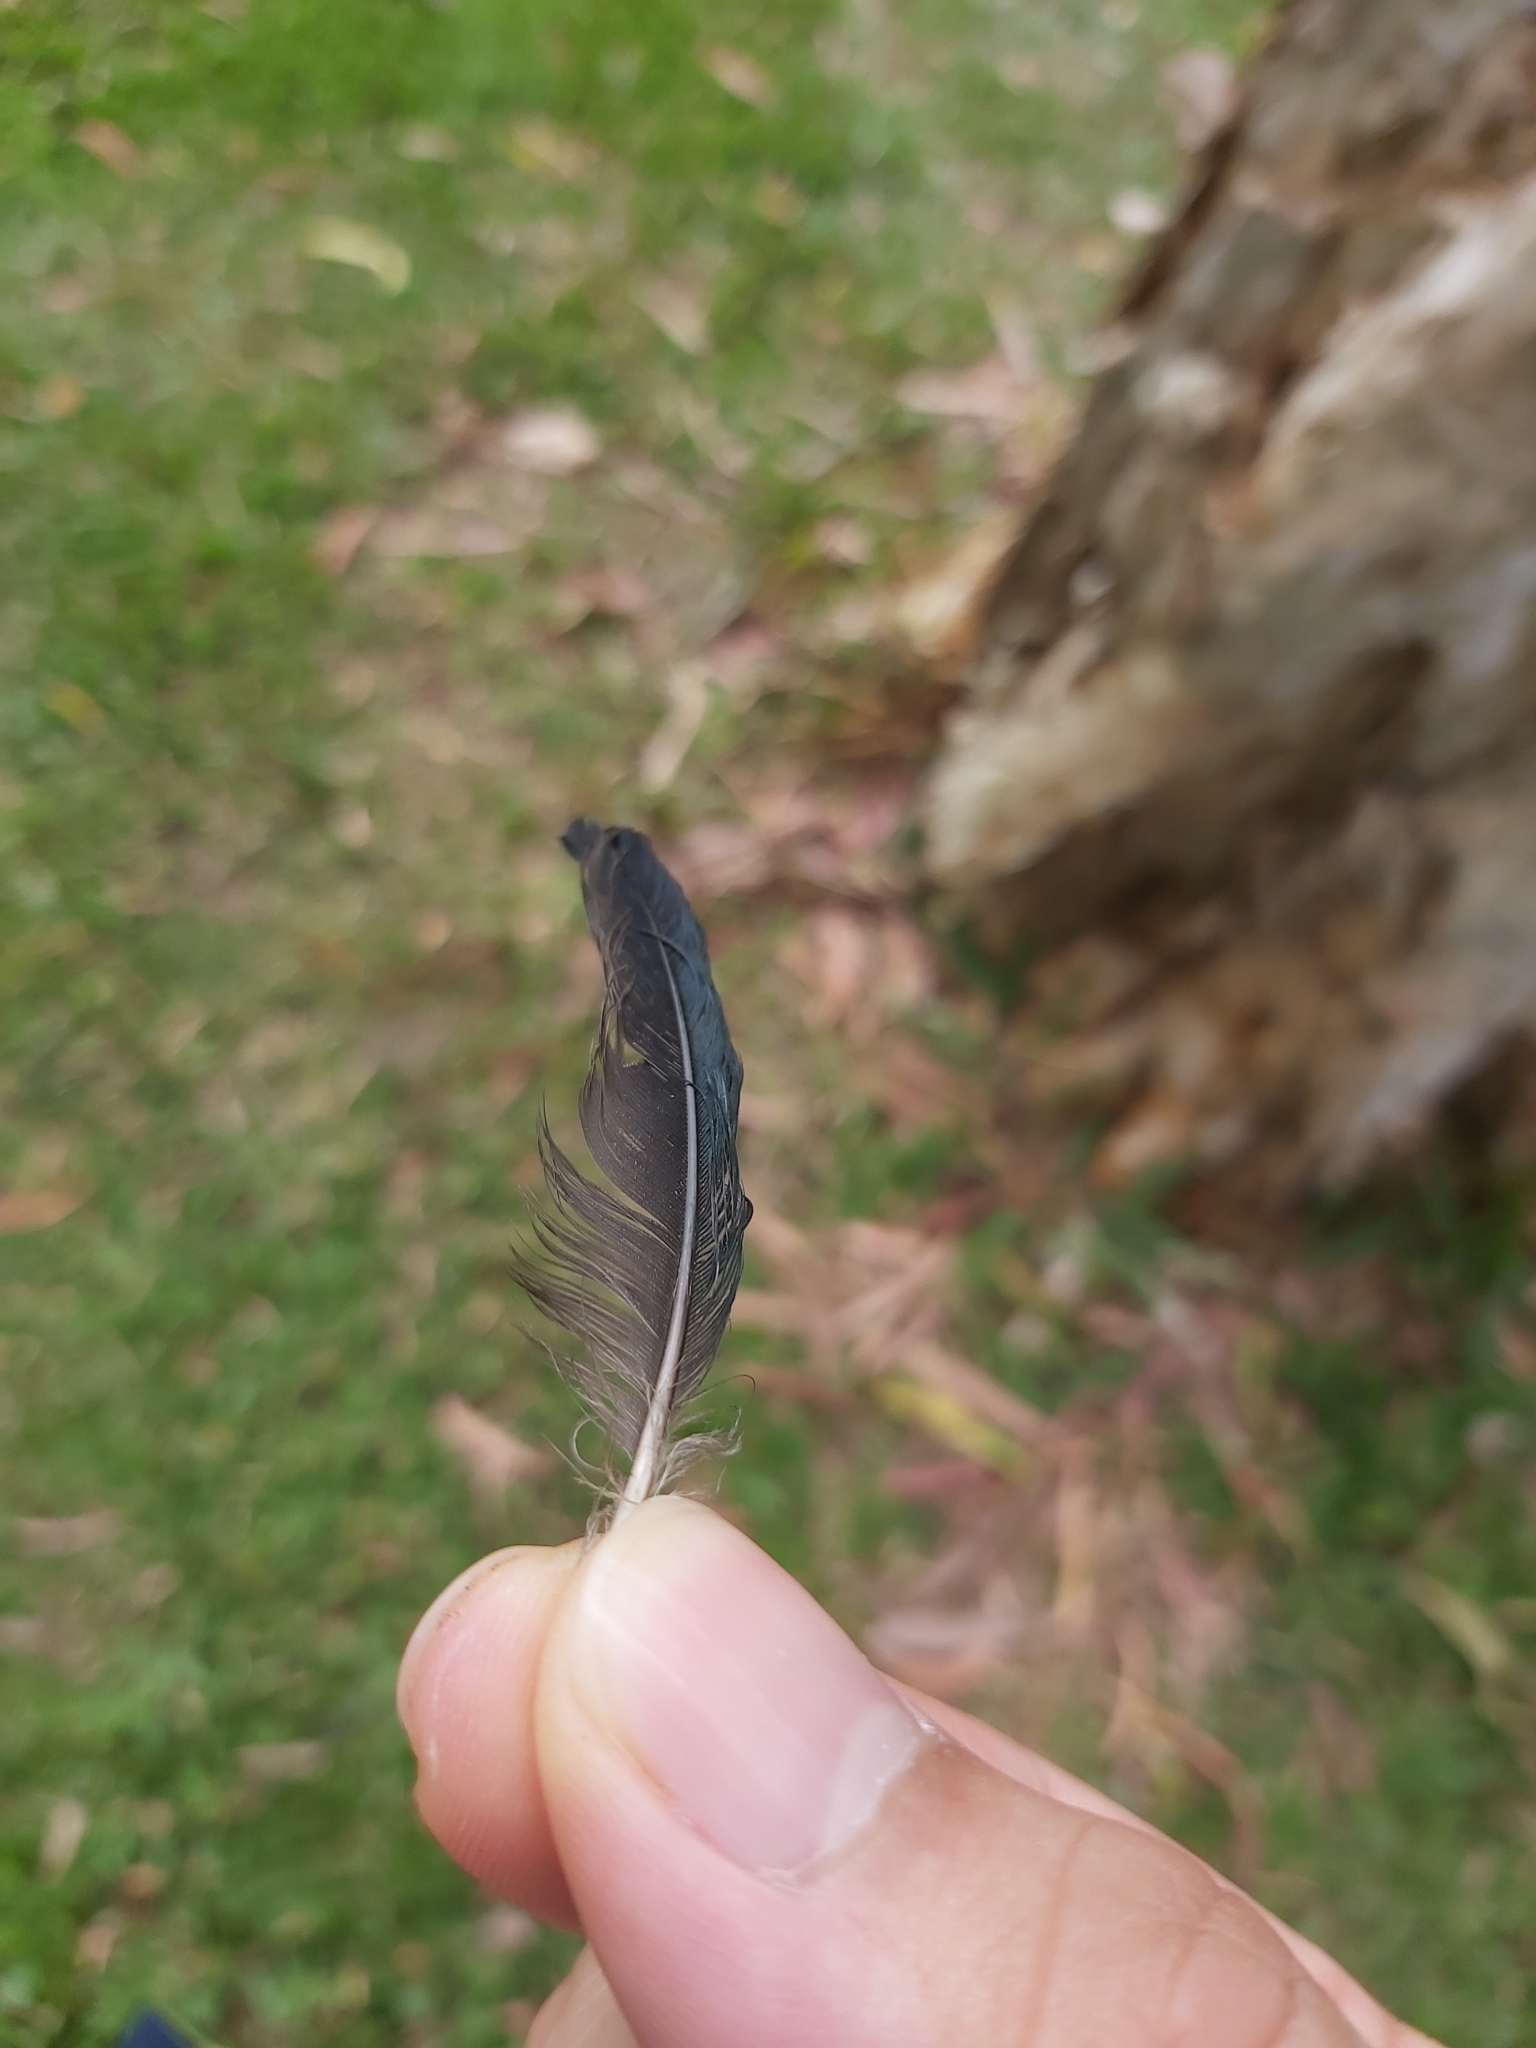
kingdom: Animalia
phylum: Chordata
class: Aves
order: Passeriformes
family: Sturnidae
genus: Aplonis
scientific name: Aplonis metallica
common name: Metallic starling
